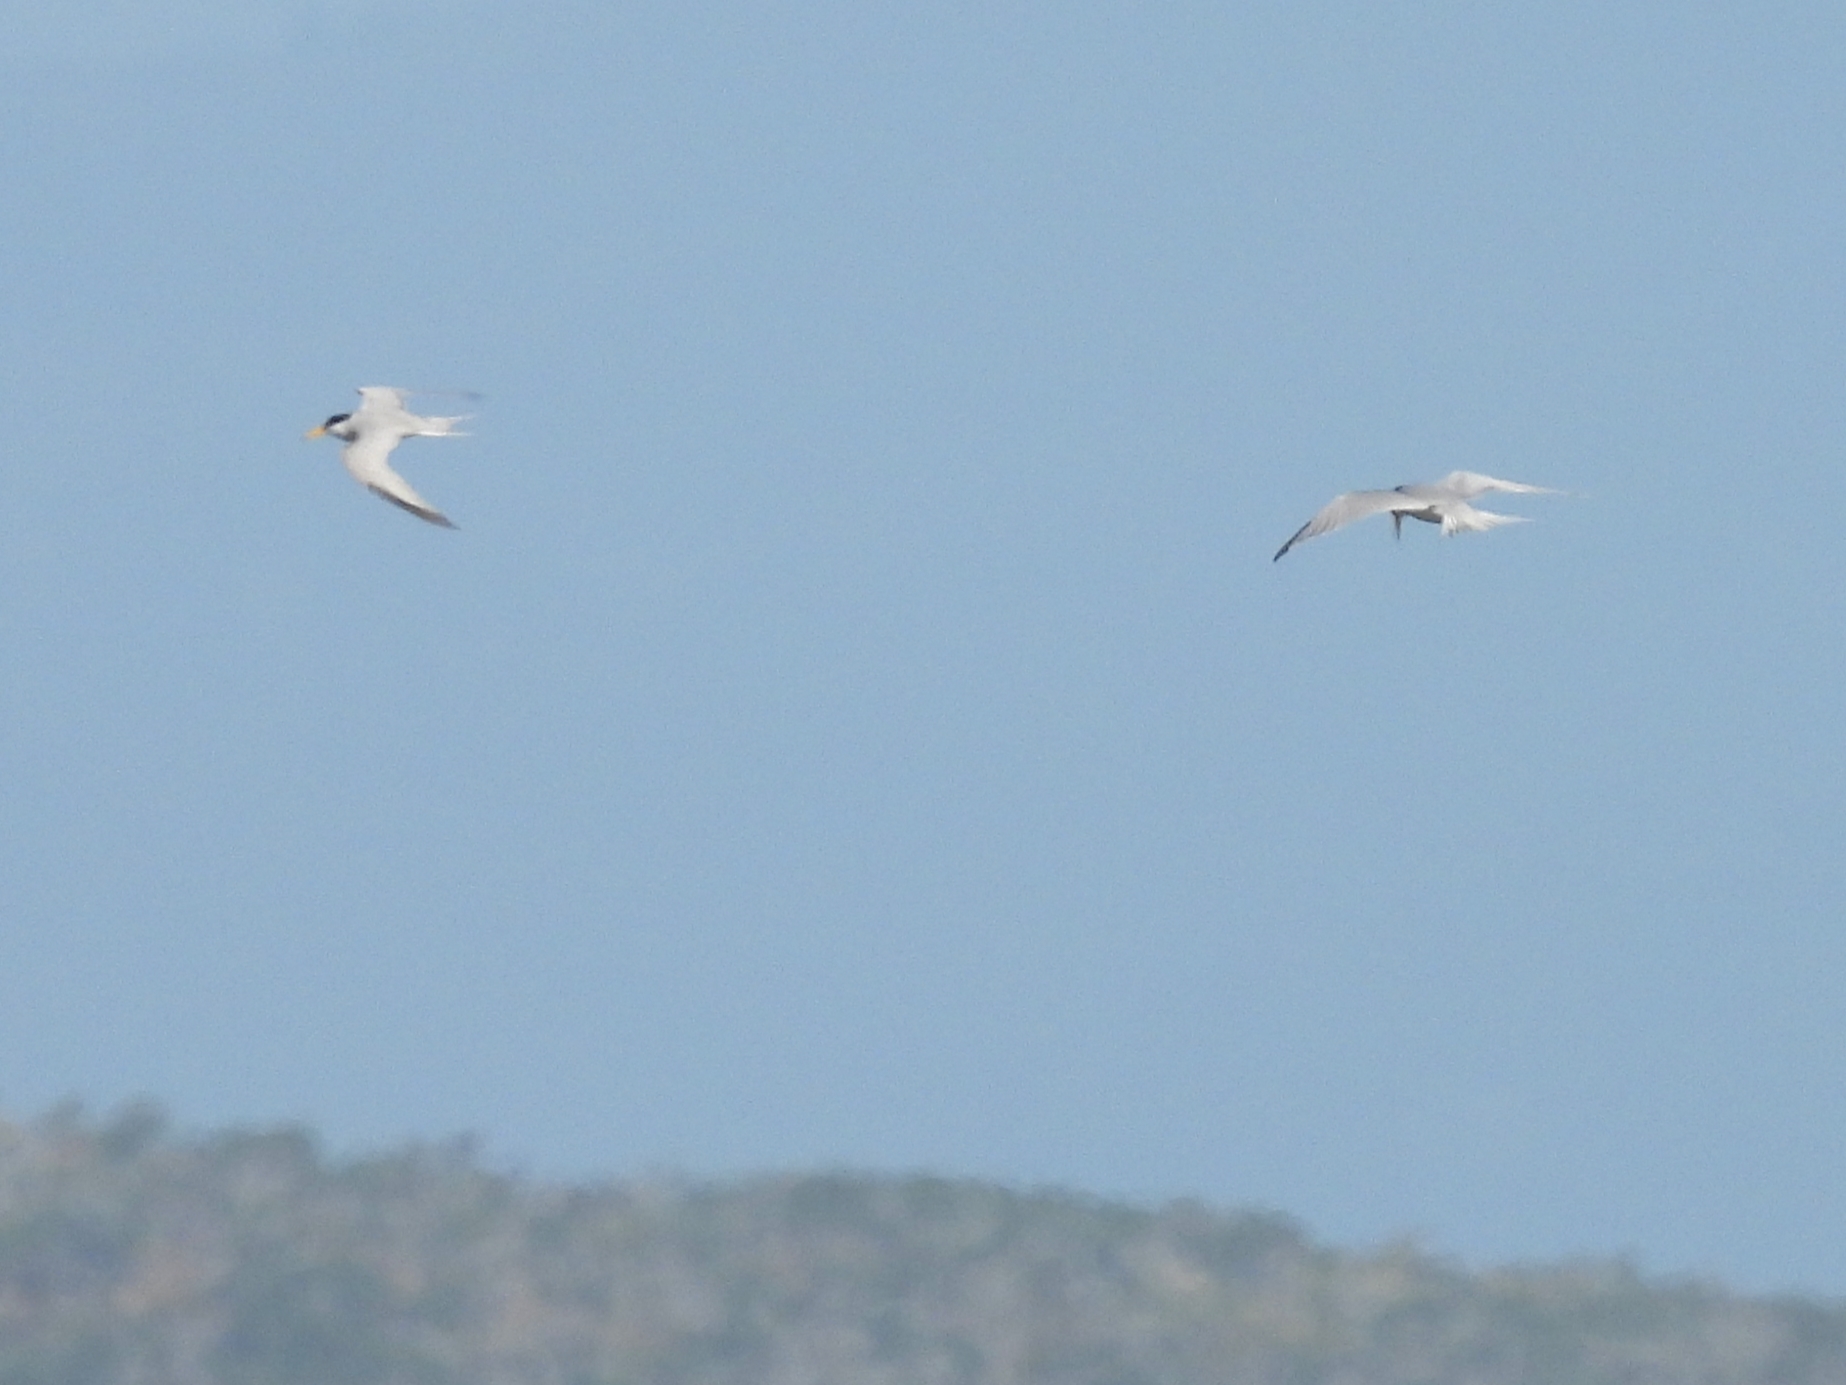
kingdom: Animalia
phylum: Chordata
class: Aves
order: Charadriiformes
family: Laridae
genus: Sternula
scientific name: Sternula antillarum
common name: Least tern
